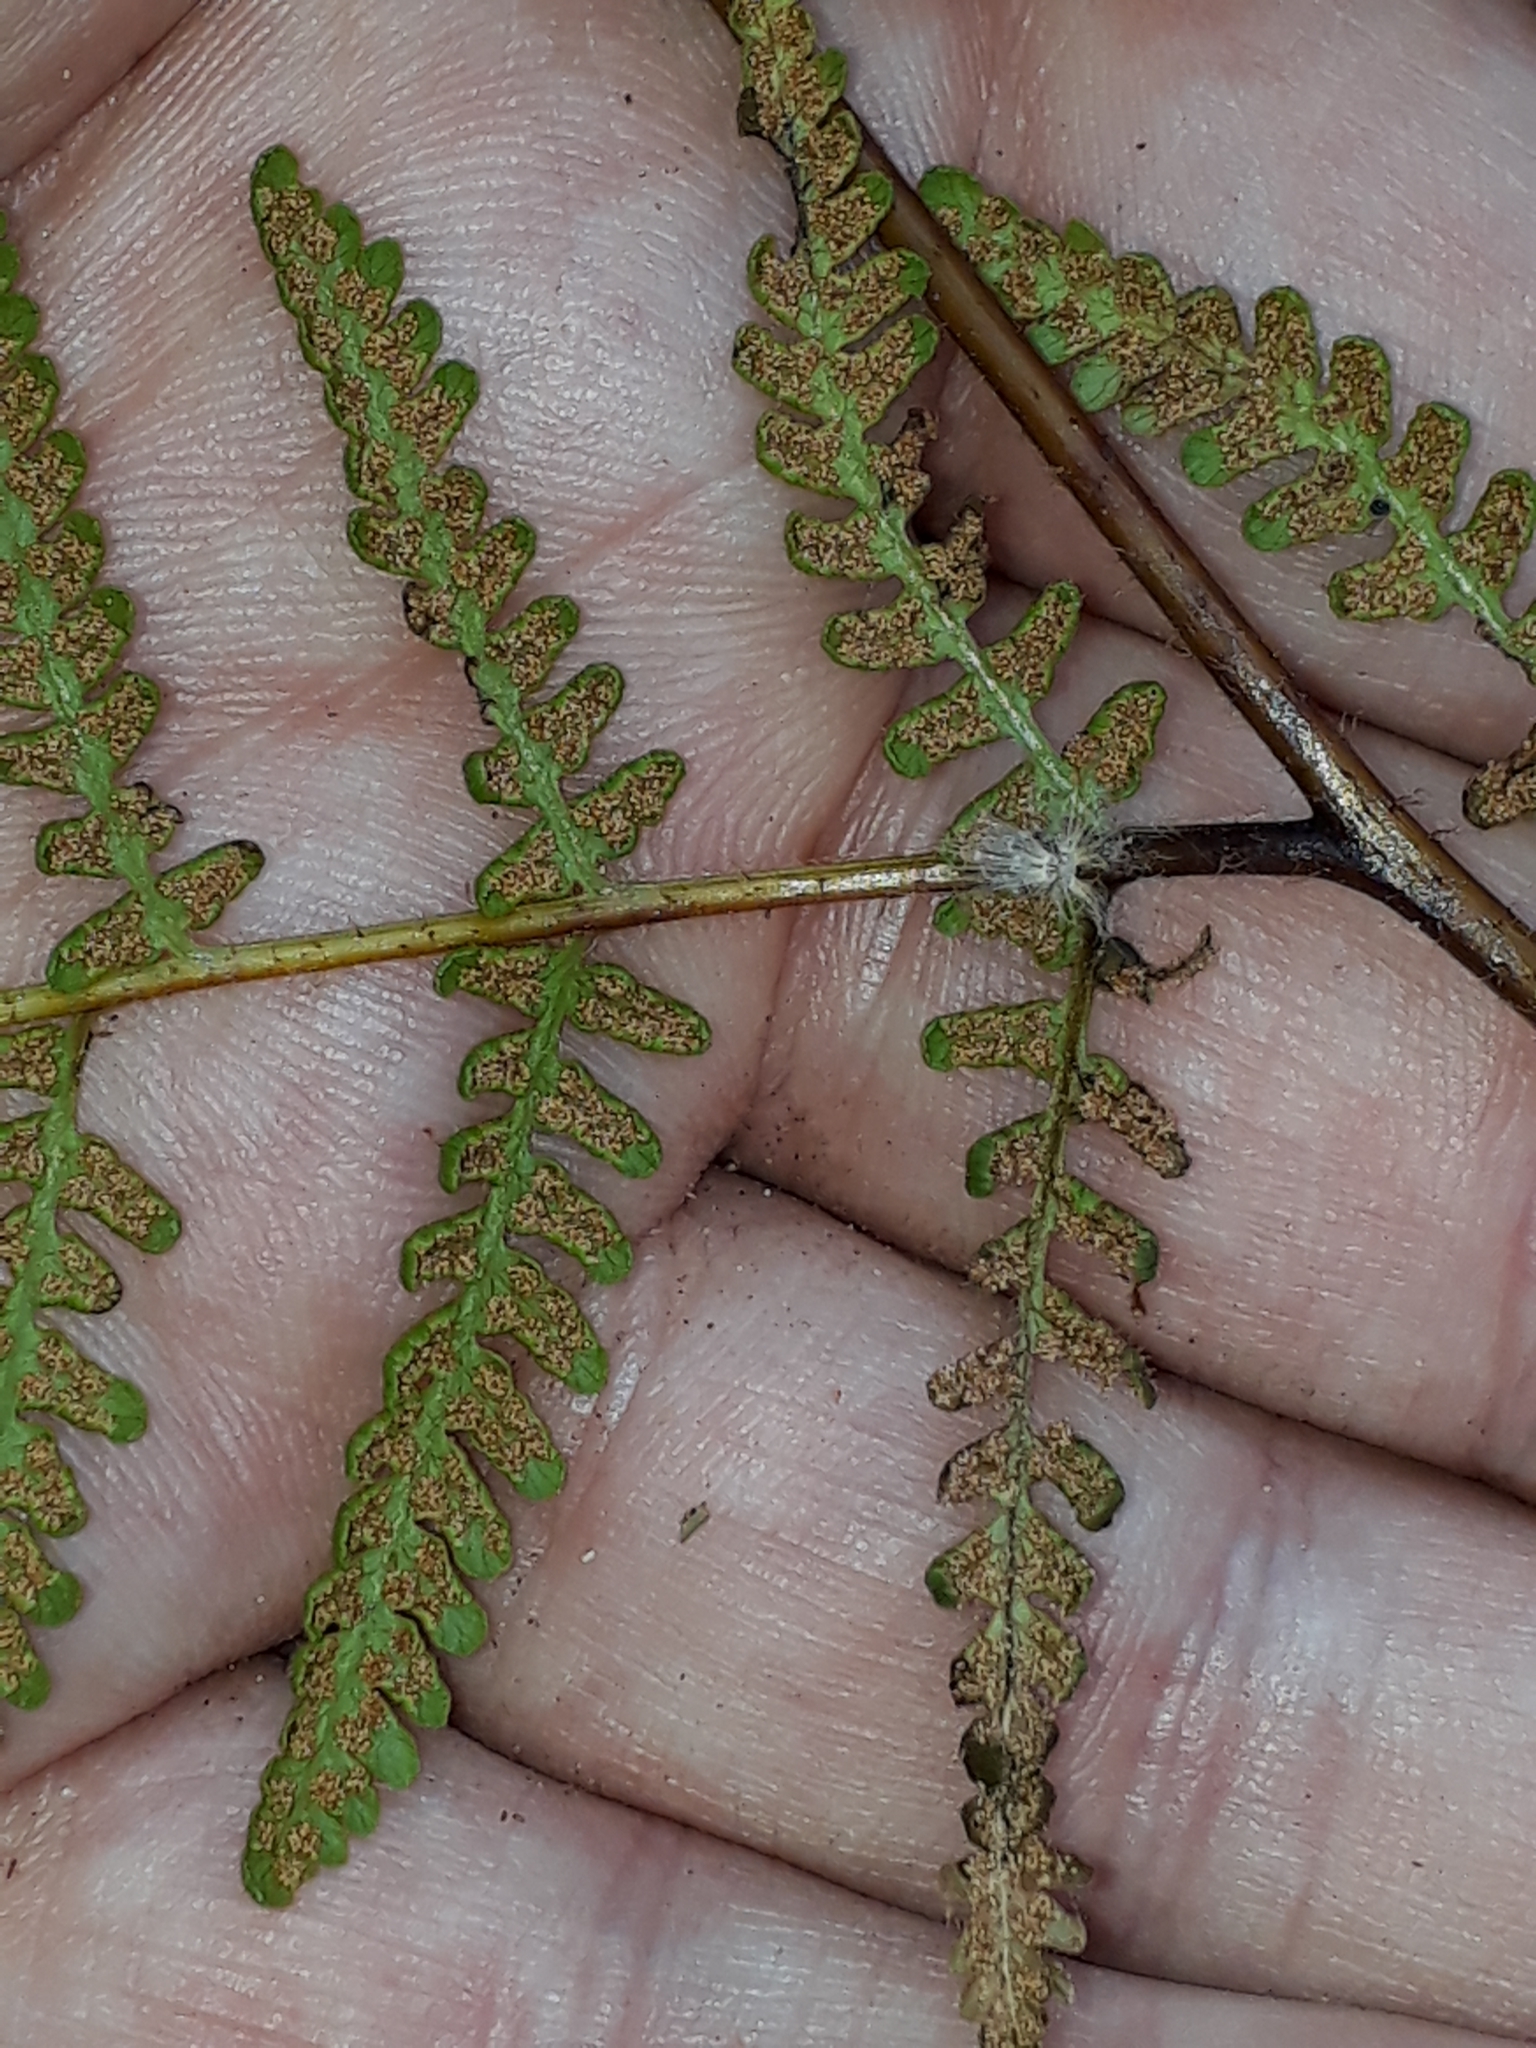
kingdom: Plantae
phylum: Tracheophyta
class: Polypodiopsida
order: Polypodiales
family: Dennstaedtiaceae
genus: Hypolepis
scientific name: Hypolepis ambigua
